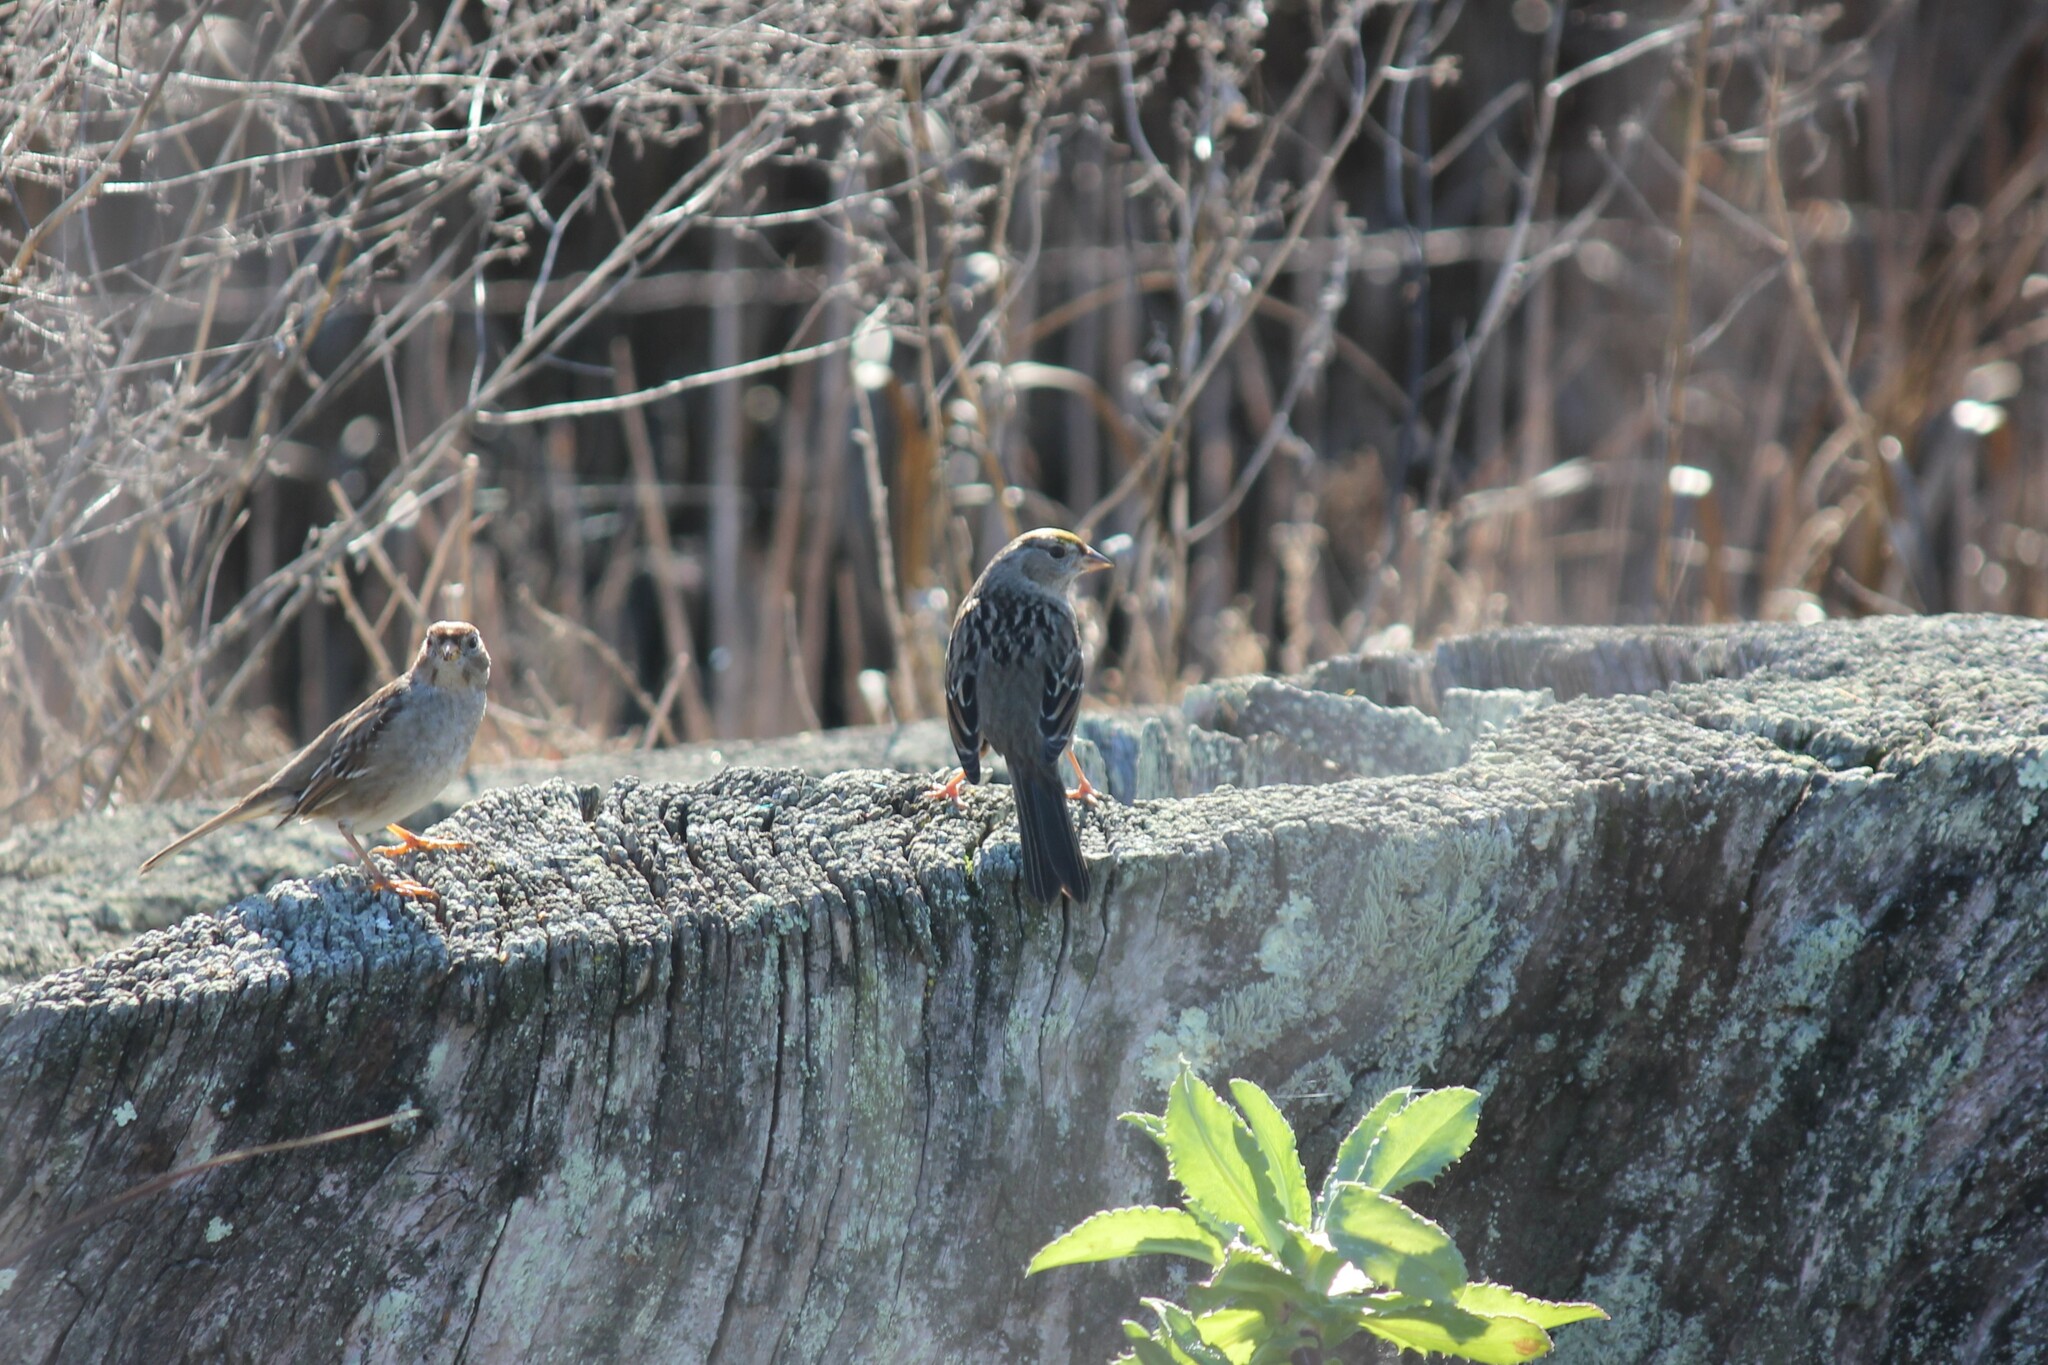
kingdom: Animalia
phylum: Chordata
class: Aves
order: Passeriformes
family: Passerellidae
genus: Zonotrichia
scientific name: Zonotrichia atricapilla
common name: Golden-crowned sparrow
